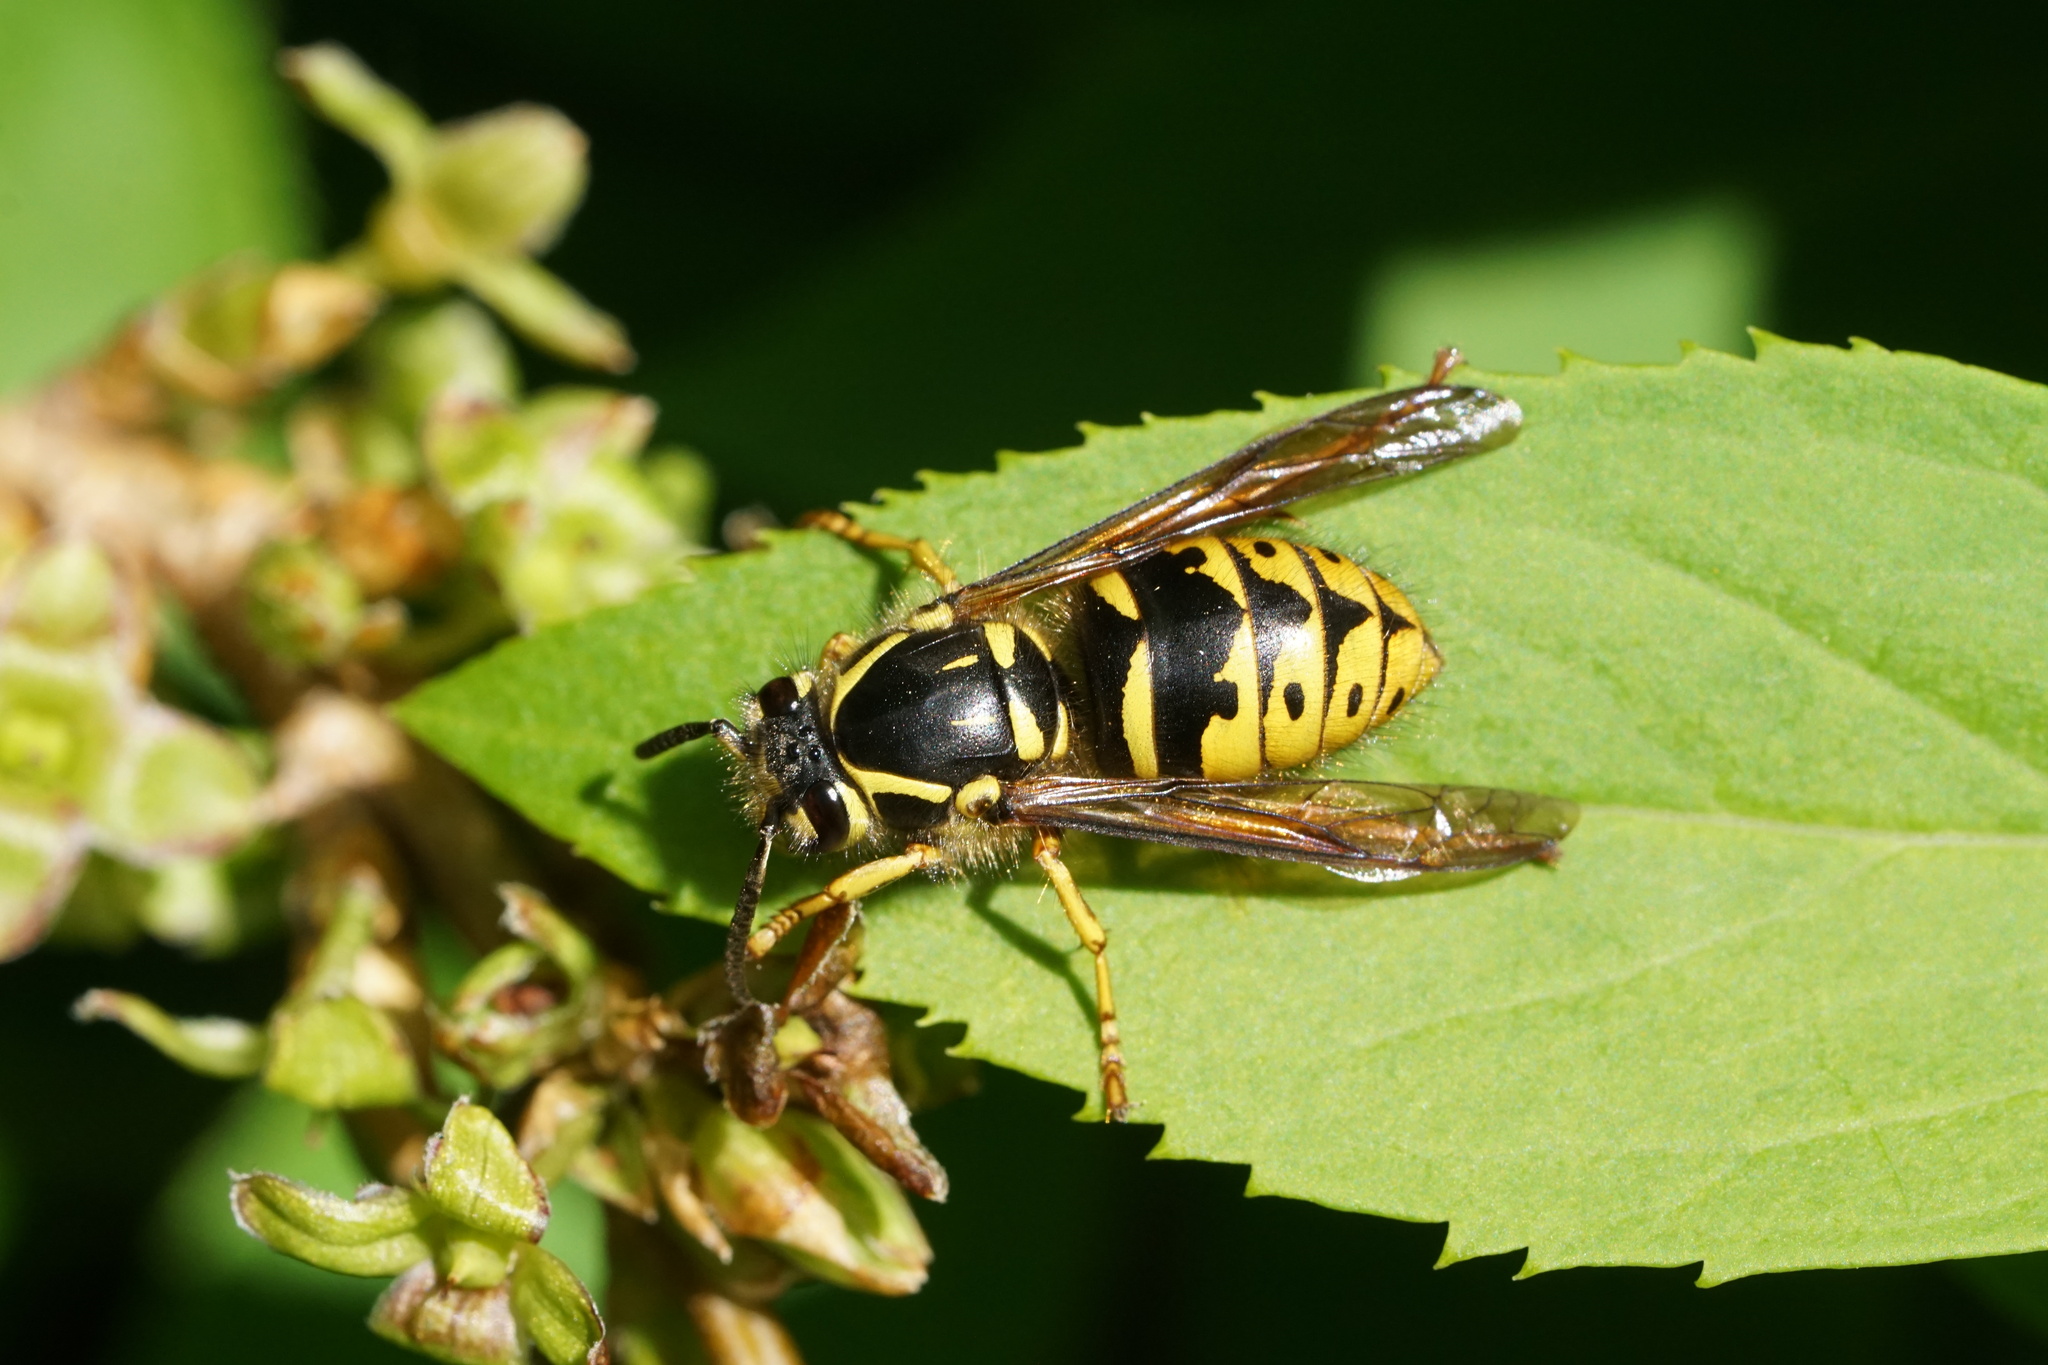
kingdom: Animalia
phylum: Arthropoda
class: Insecta
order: Hymenoptera
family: Vespidae
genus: Dolichovespula
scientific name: Dolichovespula arenaria
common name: Aerial yellowjacket
